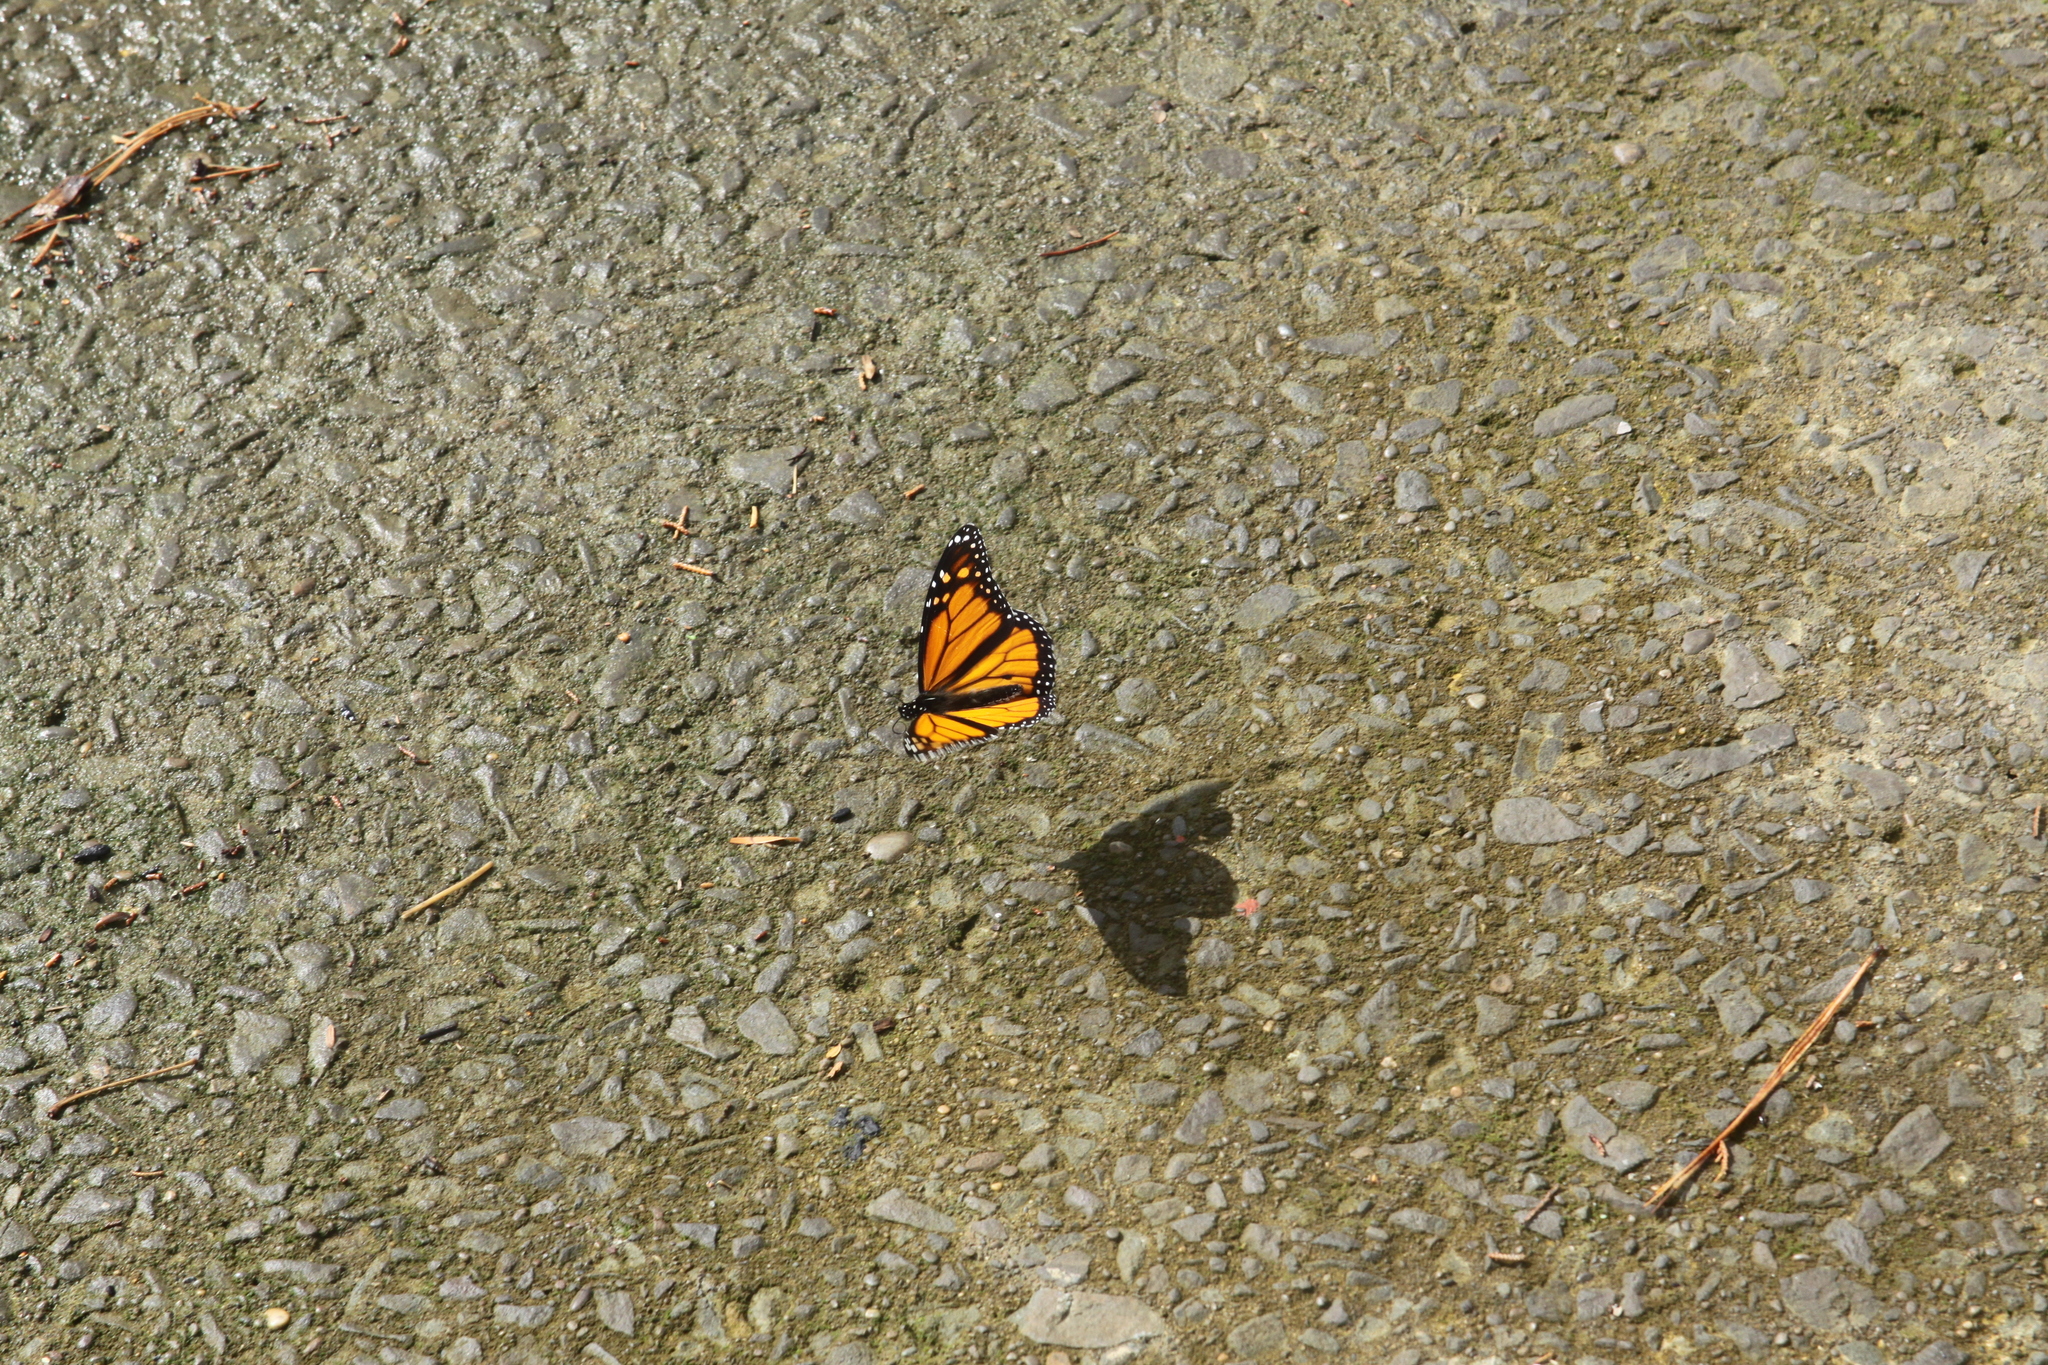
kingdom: Animalia
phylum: Arthropoda
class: Insecta
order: Lepidoptera
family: Nymphalidae
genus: Danaus
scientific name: Danaus plexippus
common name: Monarch
